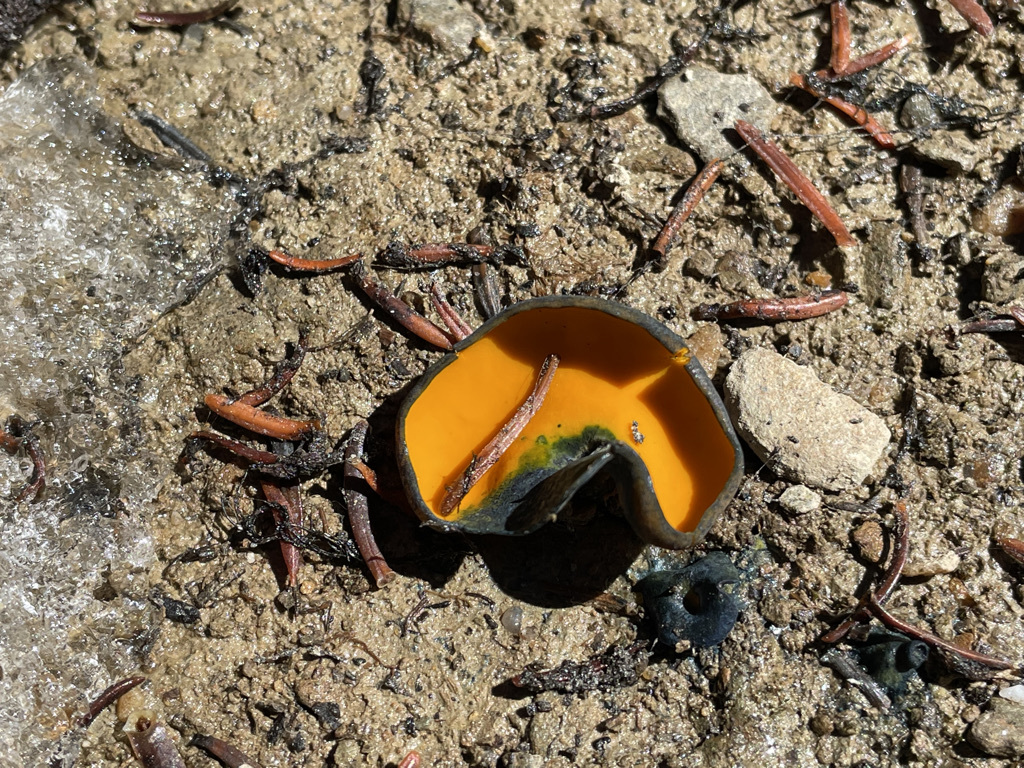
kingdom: Fungi
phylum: Ascomycota
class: Pezizomycetes
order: Pezizales
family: Caloscyphaceae
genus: Caloscypha
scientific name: Caloscypha fulgens
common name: Golden cup
